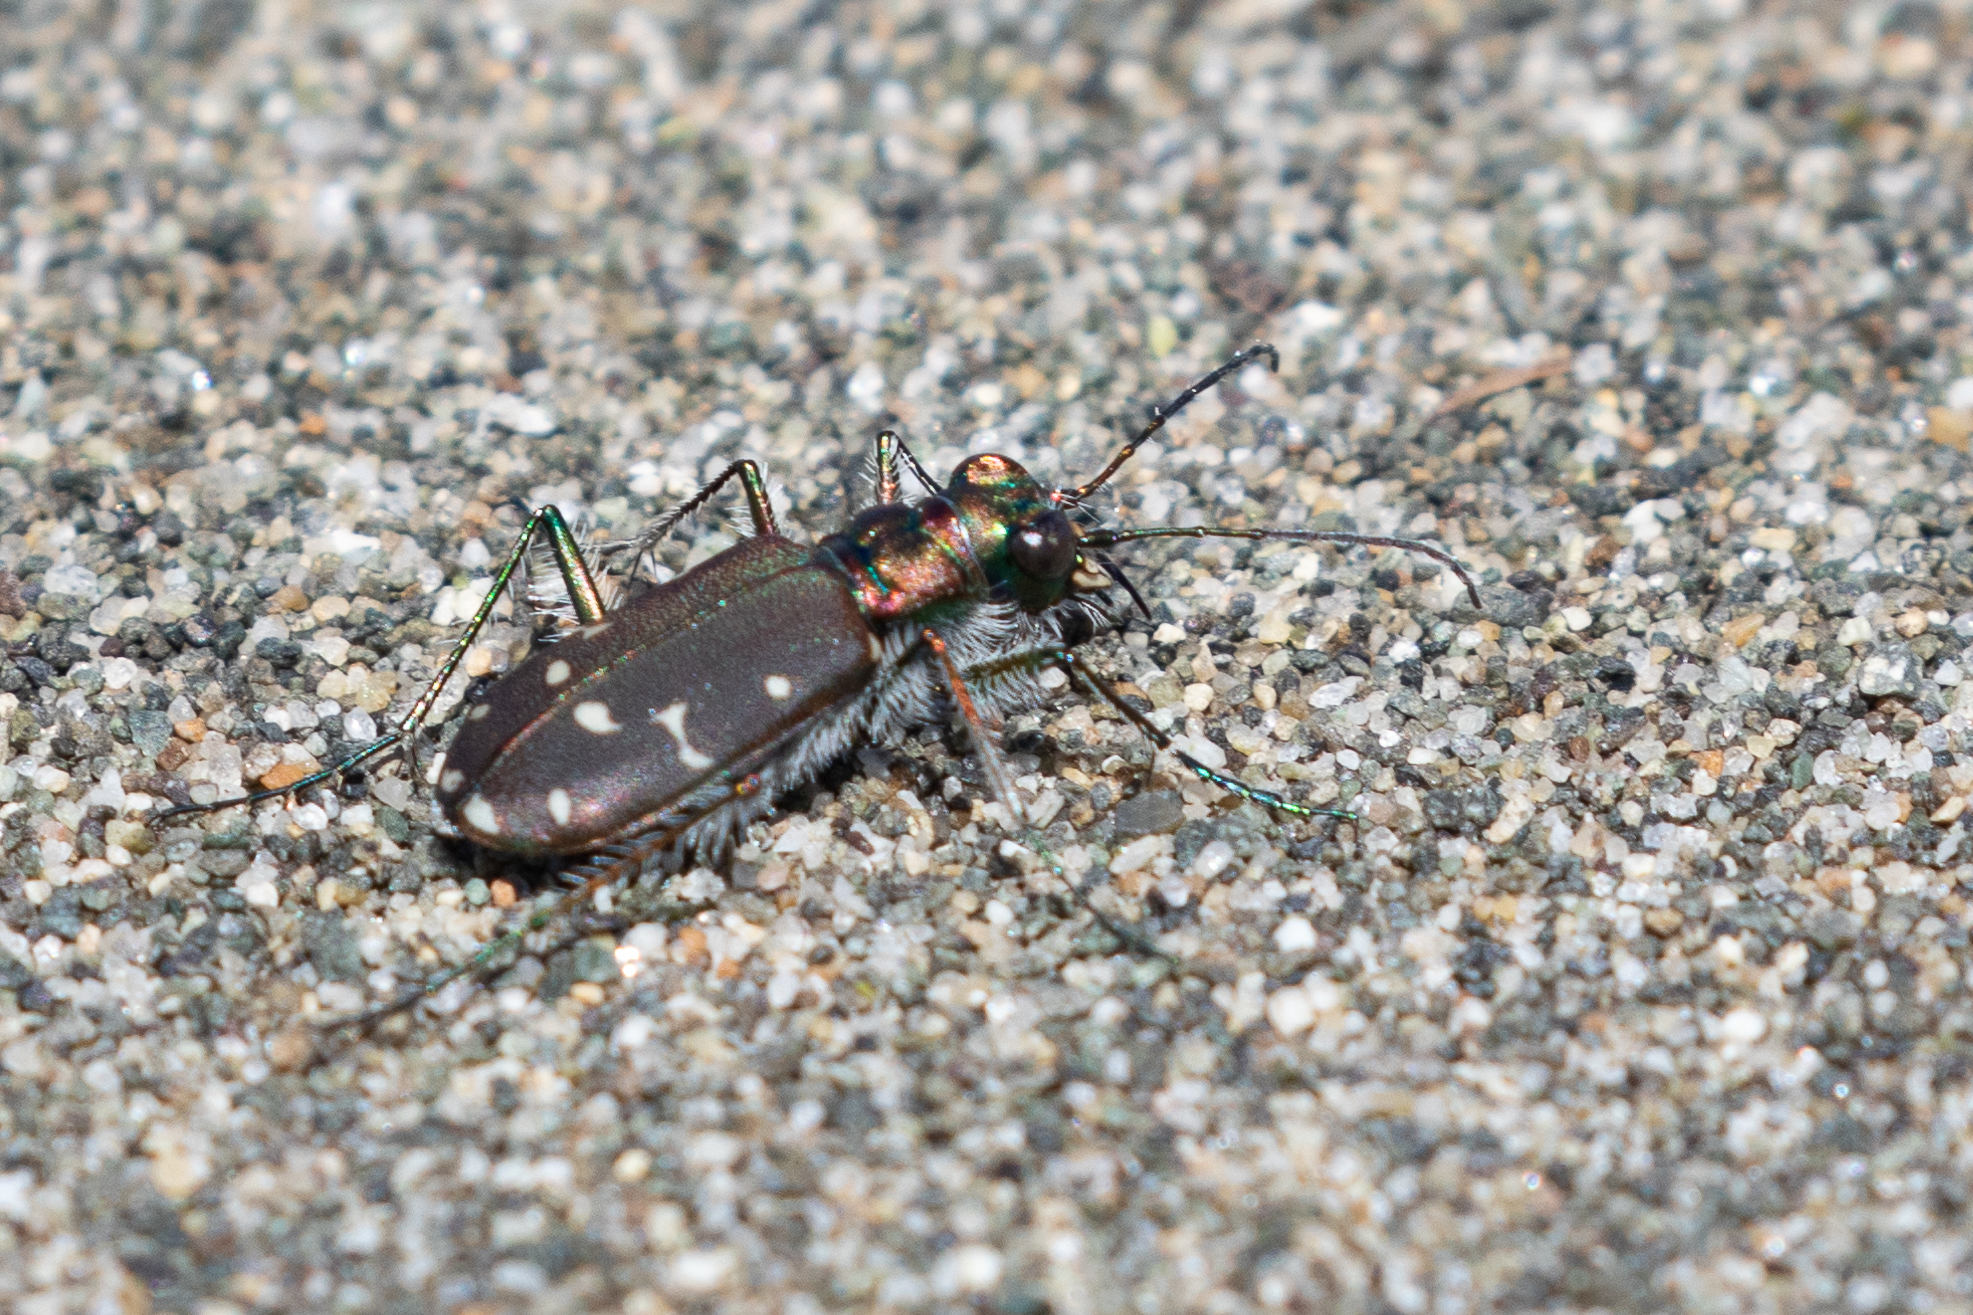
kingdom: Animalia
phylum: Arthropoda
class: Insecta
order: Coleoptera
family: Carabidae
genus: Cicindela
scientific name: Cicindela oregona
